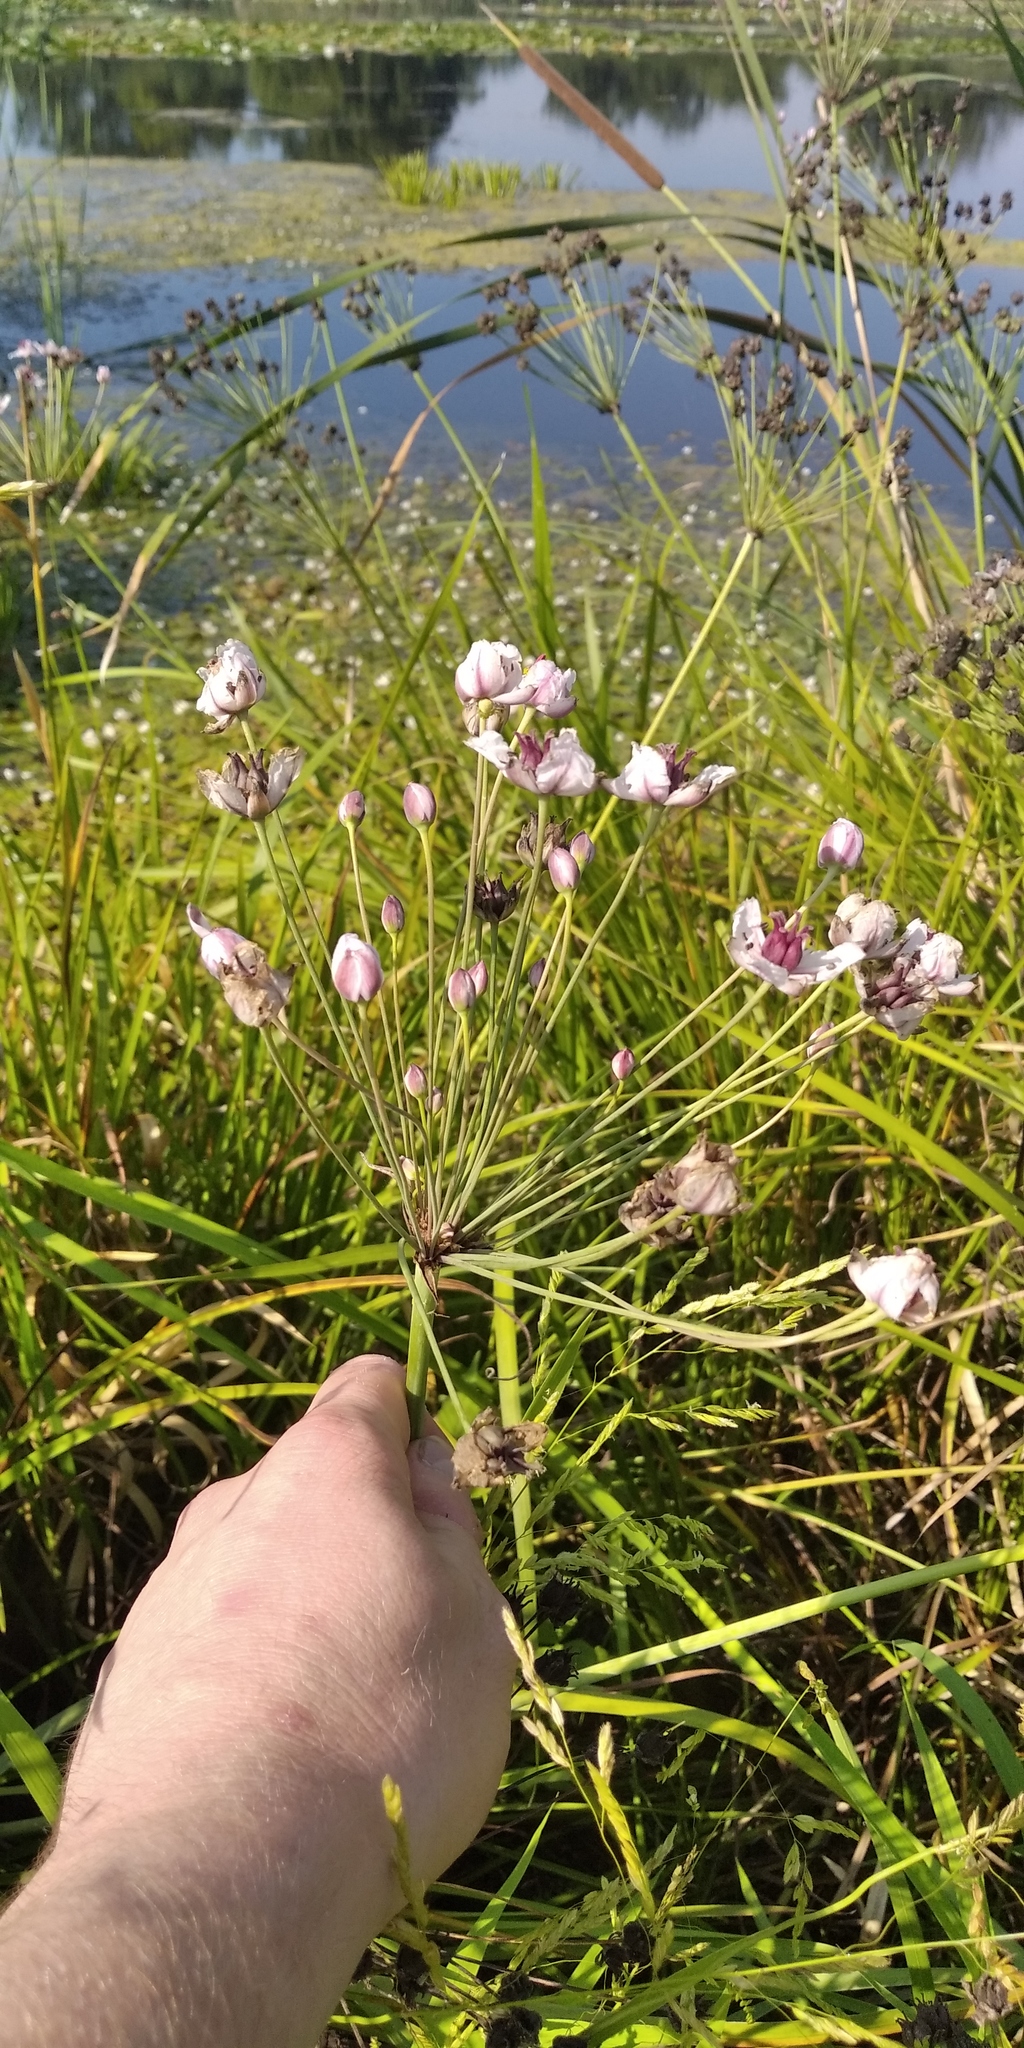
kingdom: Plantae
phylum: Tracheophyta
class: Liliopsida
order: Alismatales
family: Butomaceae
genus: Butomus
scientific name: Butomus umbellatus
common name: Flowering-rush
